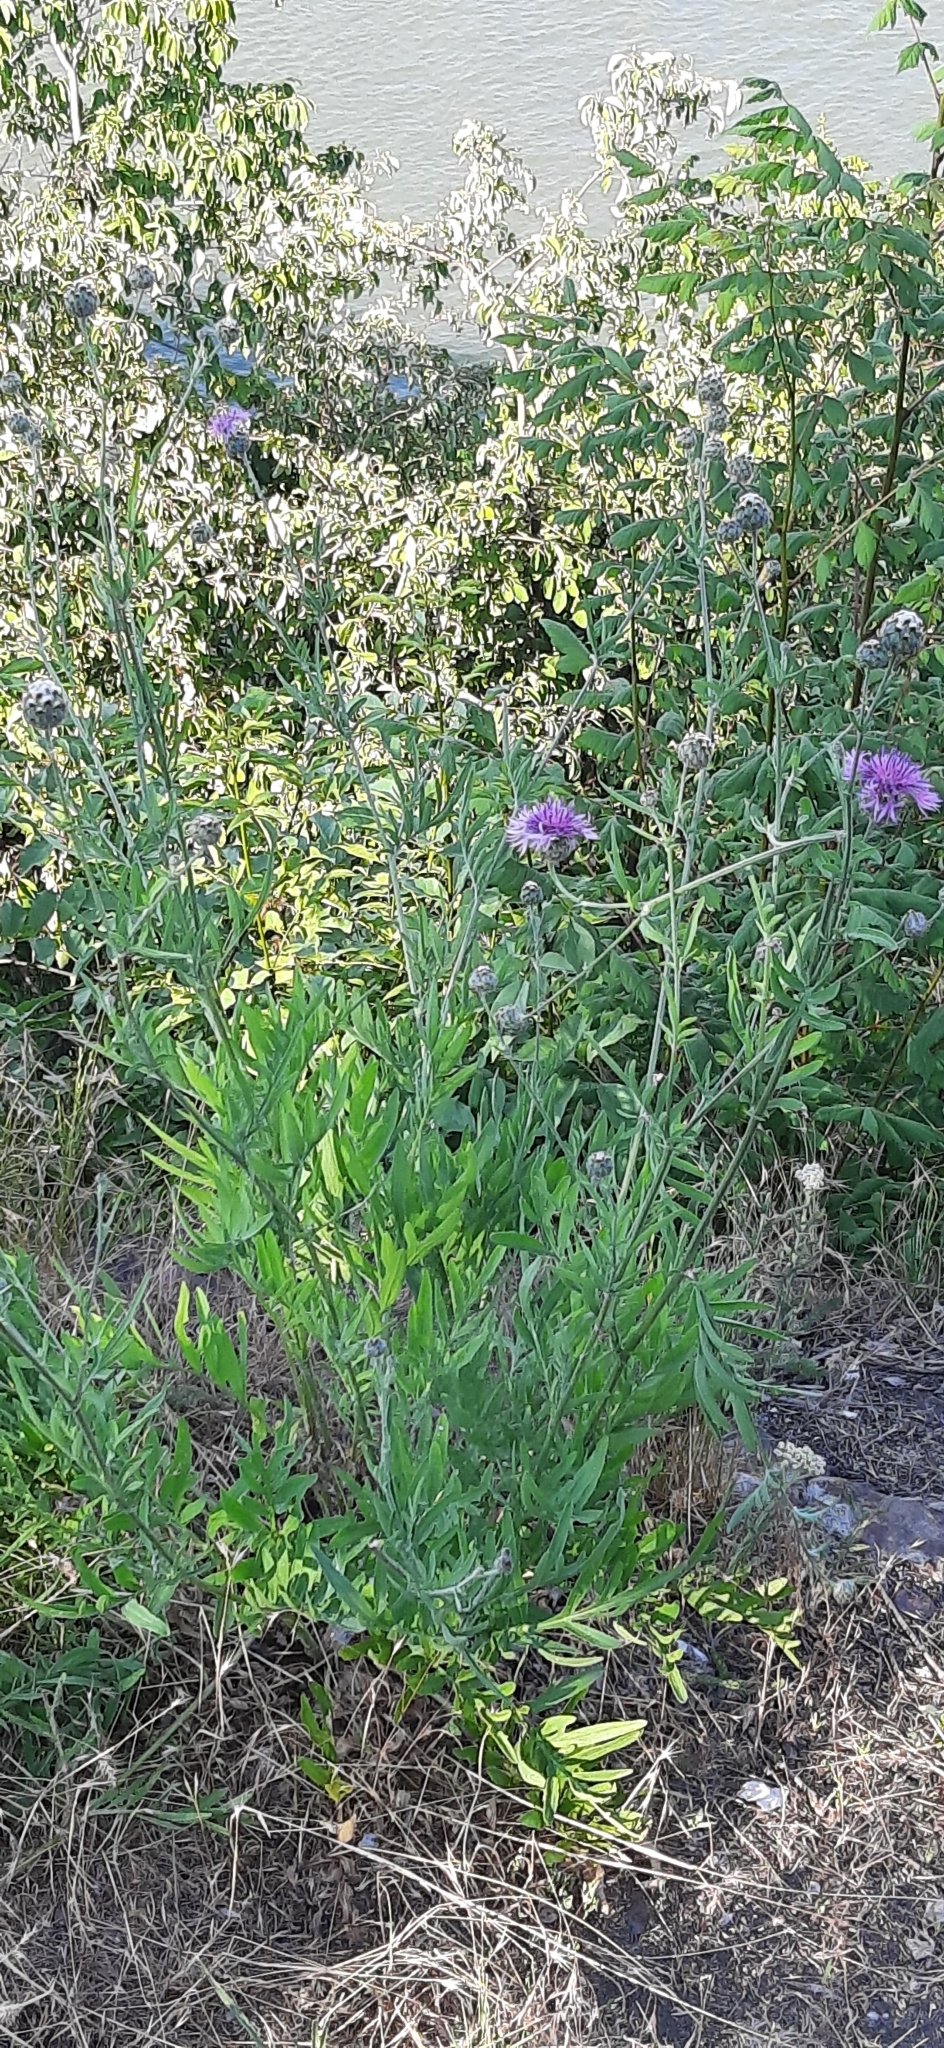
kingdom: Plantae
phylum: Tracheophyta
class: Magnoliopsida
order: Asterales
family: Asteraceae
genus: Centaurea
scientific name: Centaurea scabiosa
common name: Greater knapweed
